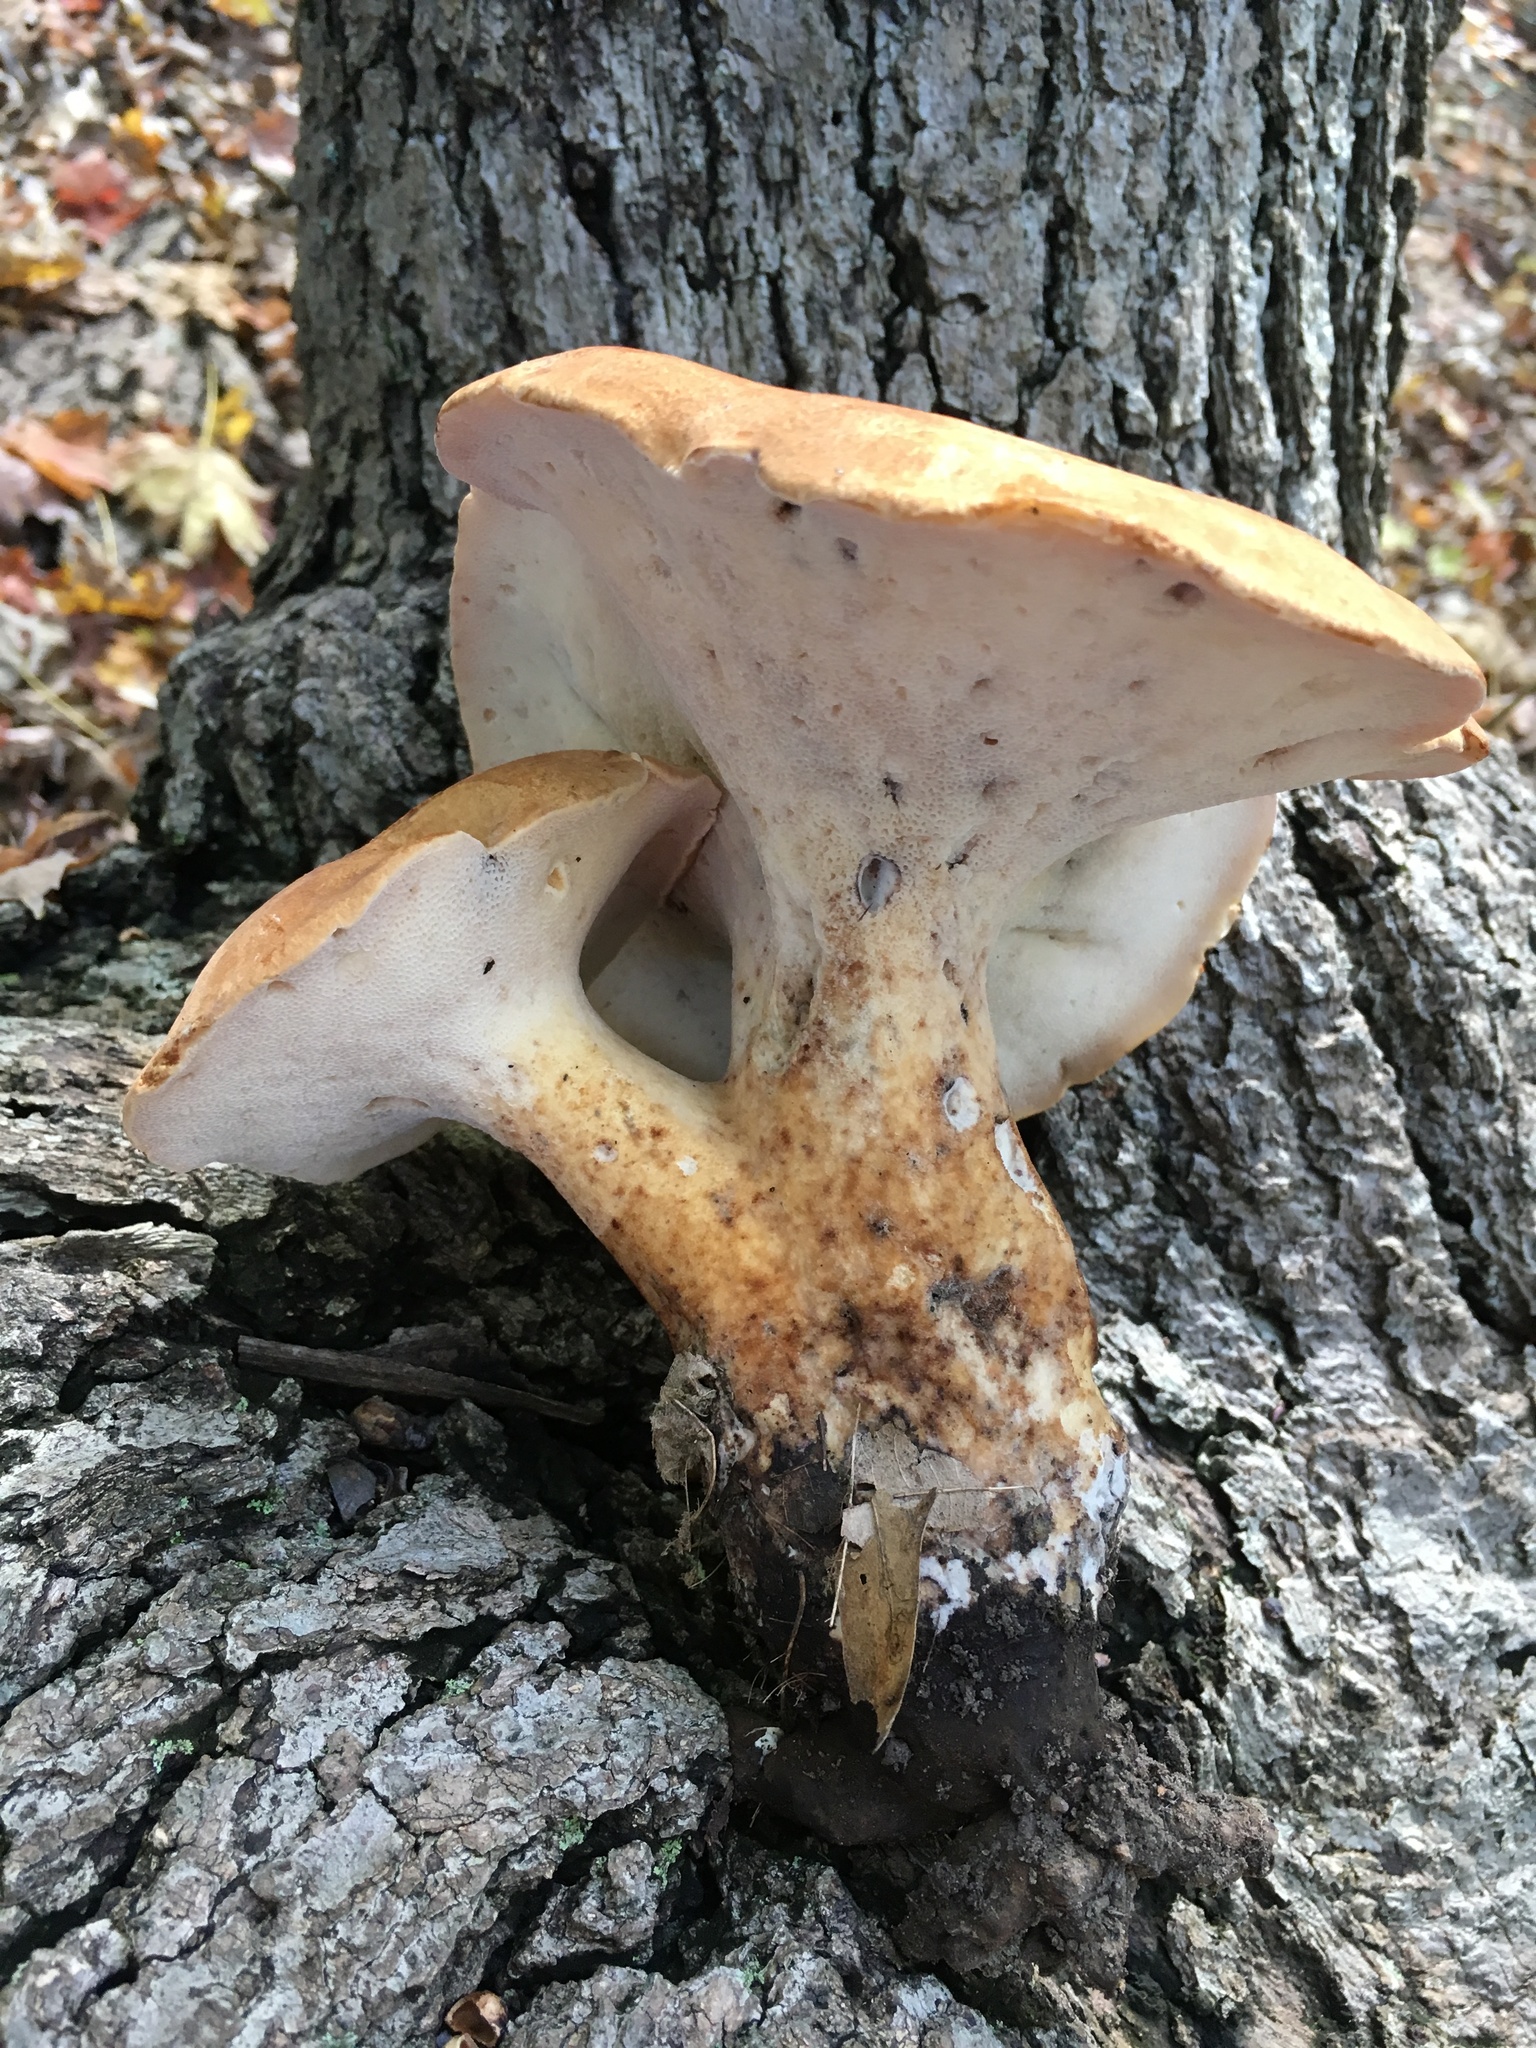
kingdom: Fungi
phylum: Basidiomycota
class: Agaricomycetes
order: Polyporales
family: Polyporaceae
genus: Polyporus
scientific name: Polyporus radicatus
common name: Rooting polypore
